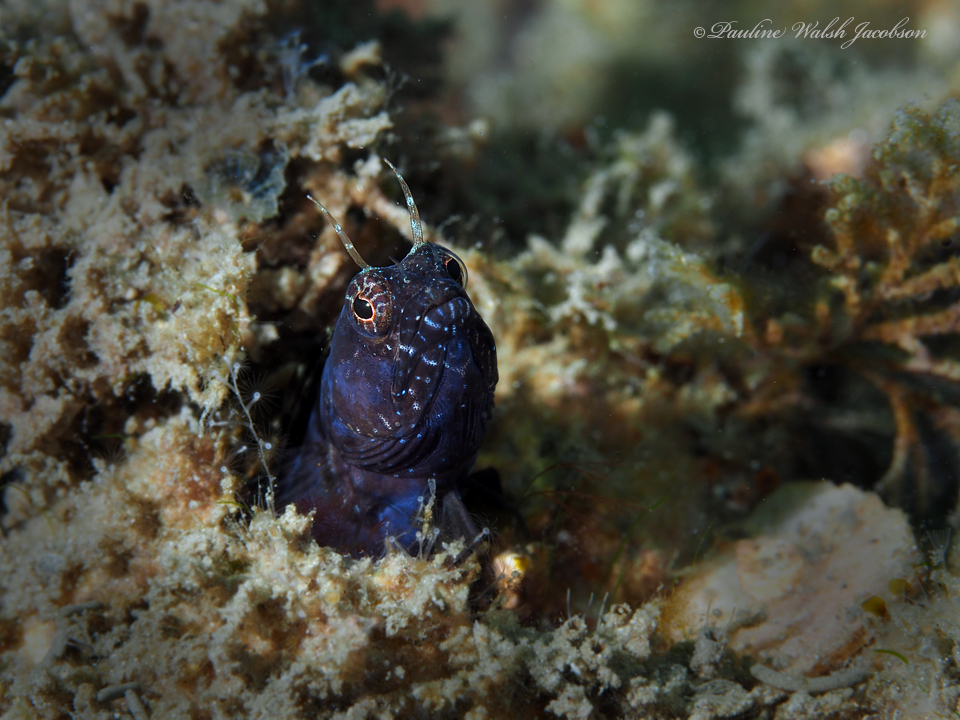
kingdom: Animalia
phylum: Chordata
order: Perciformes
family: Chaenopsidae
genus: Emblemaria
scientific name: Emblemaria pandionis
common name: Sailfin blenny
